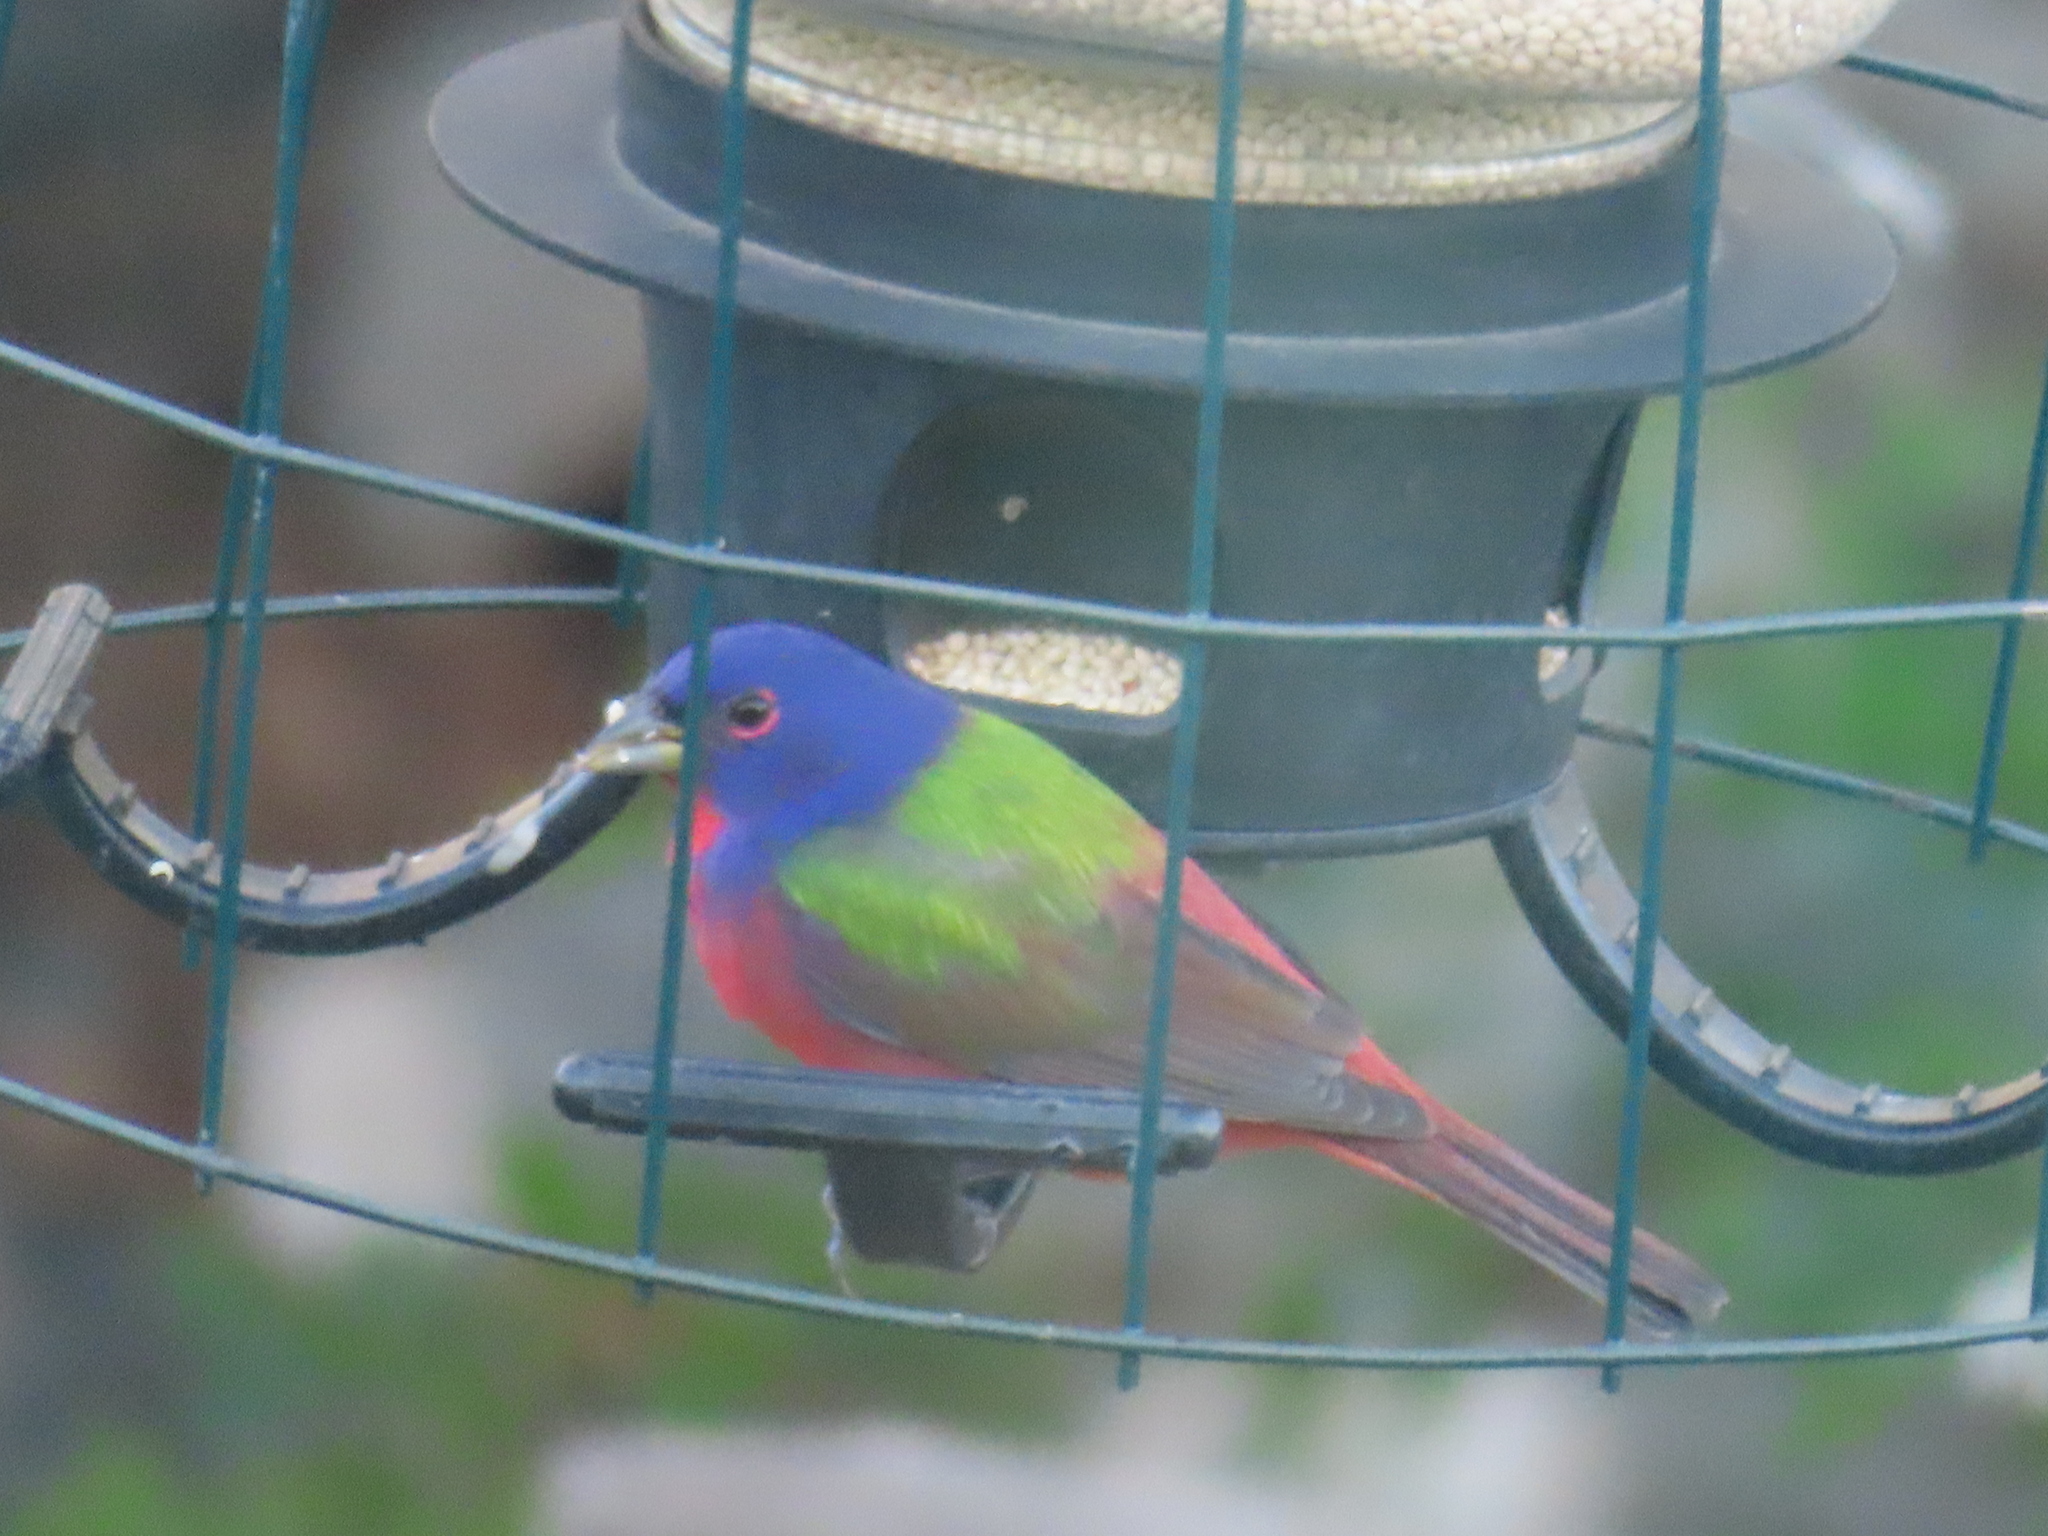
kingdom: Animalia
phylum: Chordata
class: Aves
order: Passeriformes
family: Cardinalidae
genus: Passerina
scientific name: Passerina ciris
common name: Painted bunting
